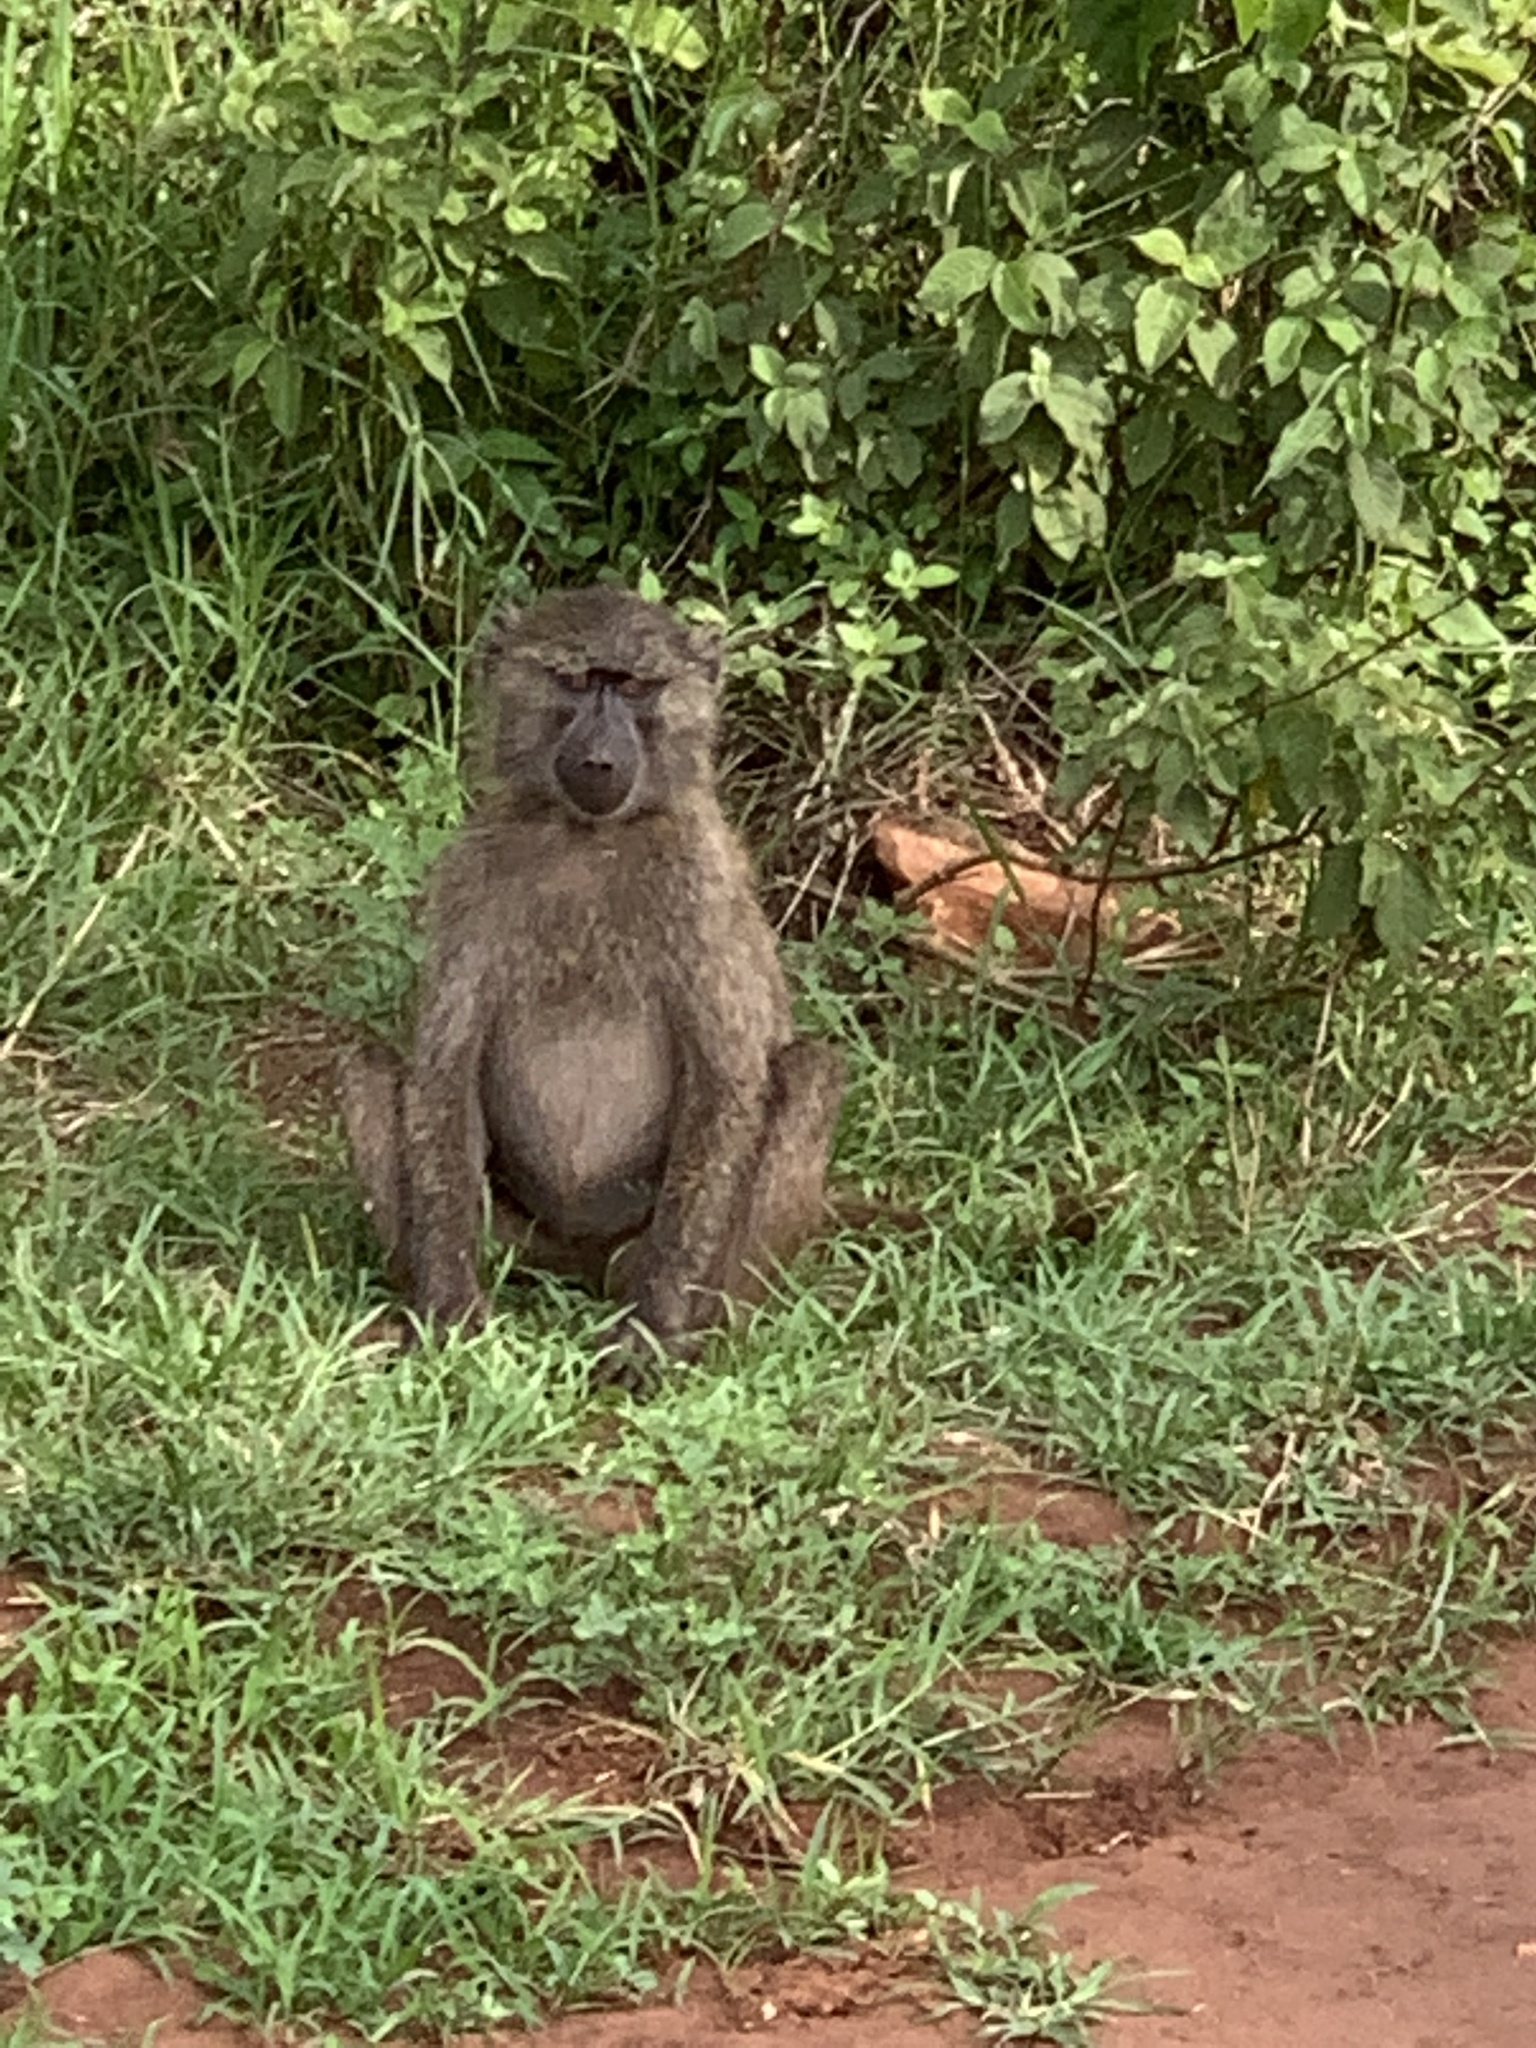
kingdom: Animalia
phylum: Chordata
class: Mammalia
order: Primates
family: Cercopithecidae
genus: Papio
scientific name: Papio anubis
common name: Olive baboon
